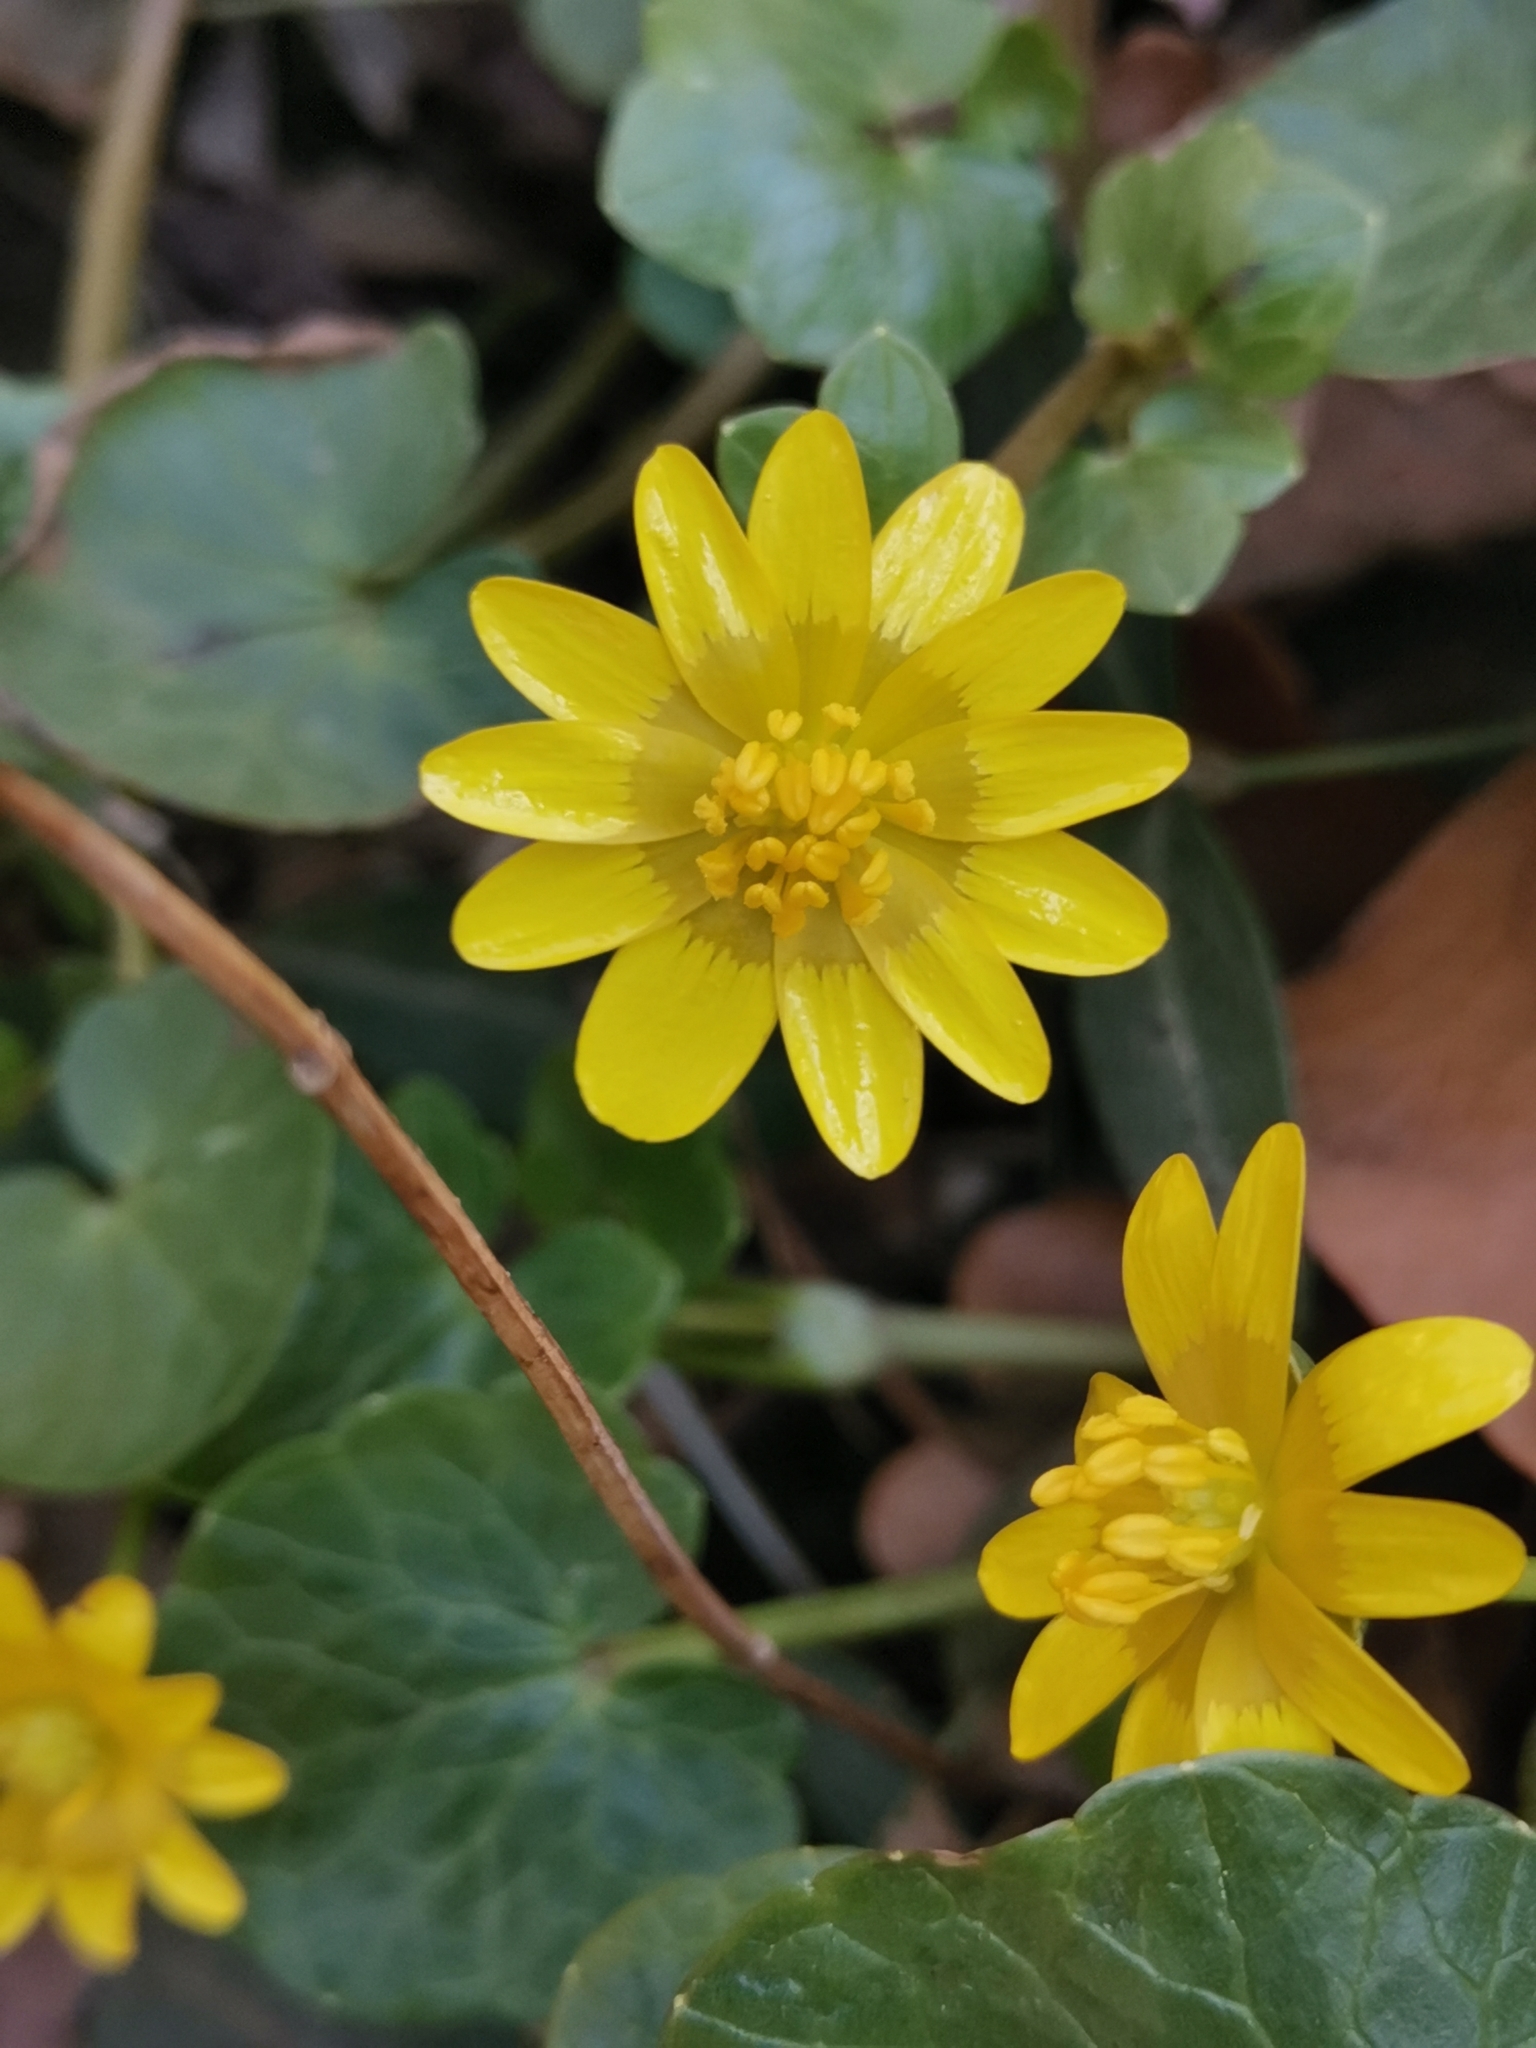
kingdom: Plantae
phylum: Tracheophyta
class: Magnoliopsida
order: Ranunculales
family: Ranunculaceae
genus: Ficaria
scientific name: Ficaria verna
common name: Lesser celandine
